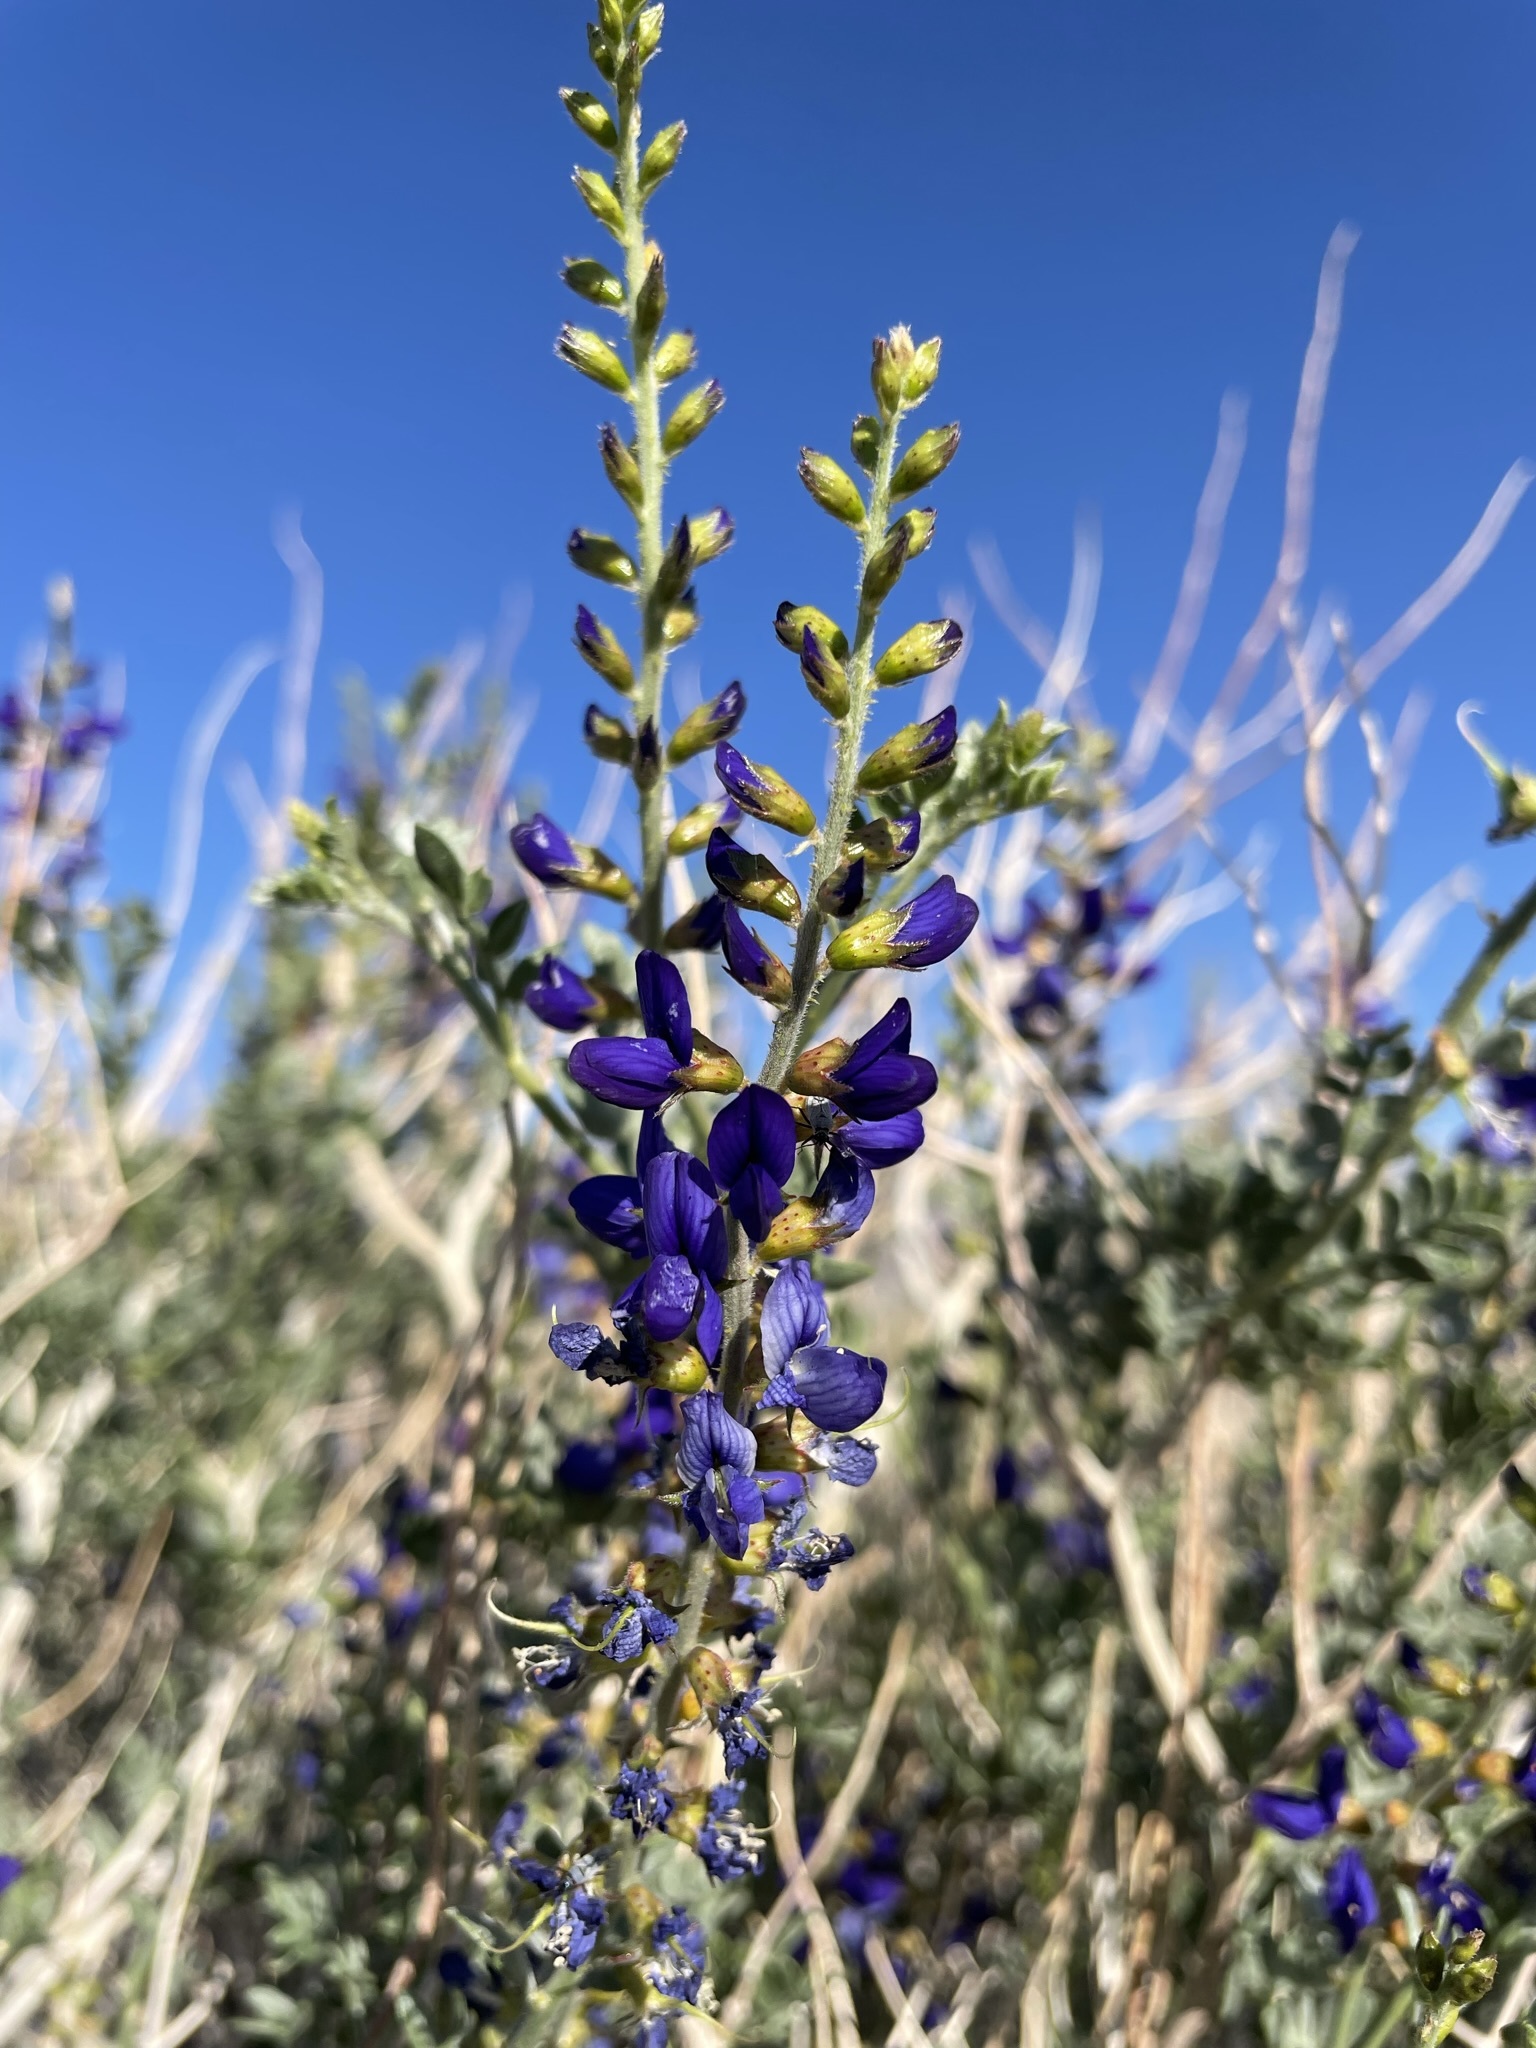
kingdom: Plantae
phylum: Tracheophyta
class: Magnoliopsida
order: Fabales
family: Fabaceae
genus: Psorothamnus
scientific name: Psorothamnus arborescens
